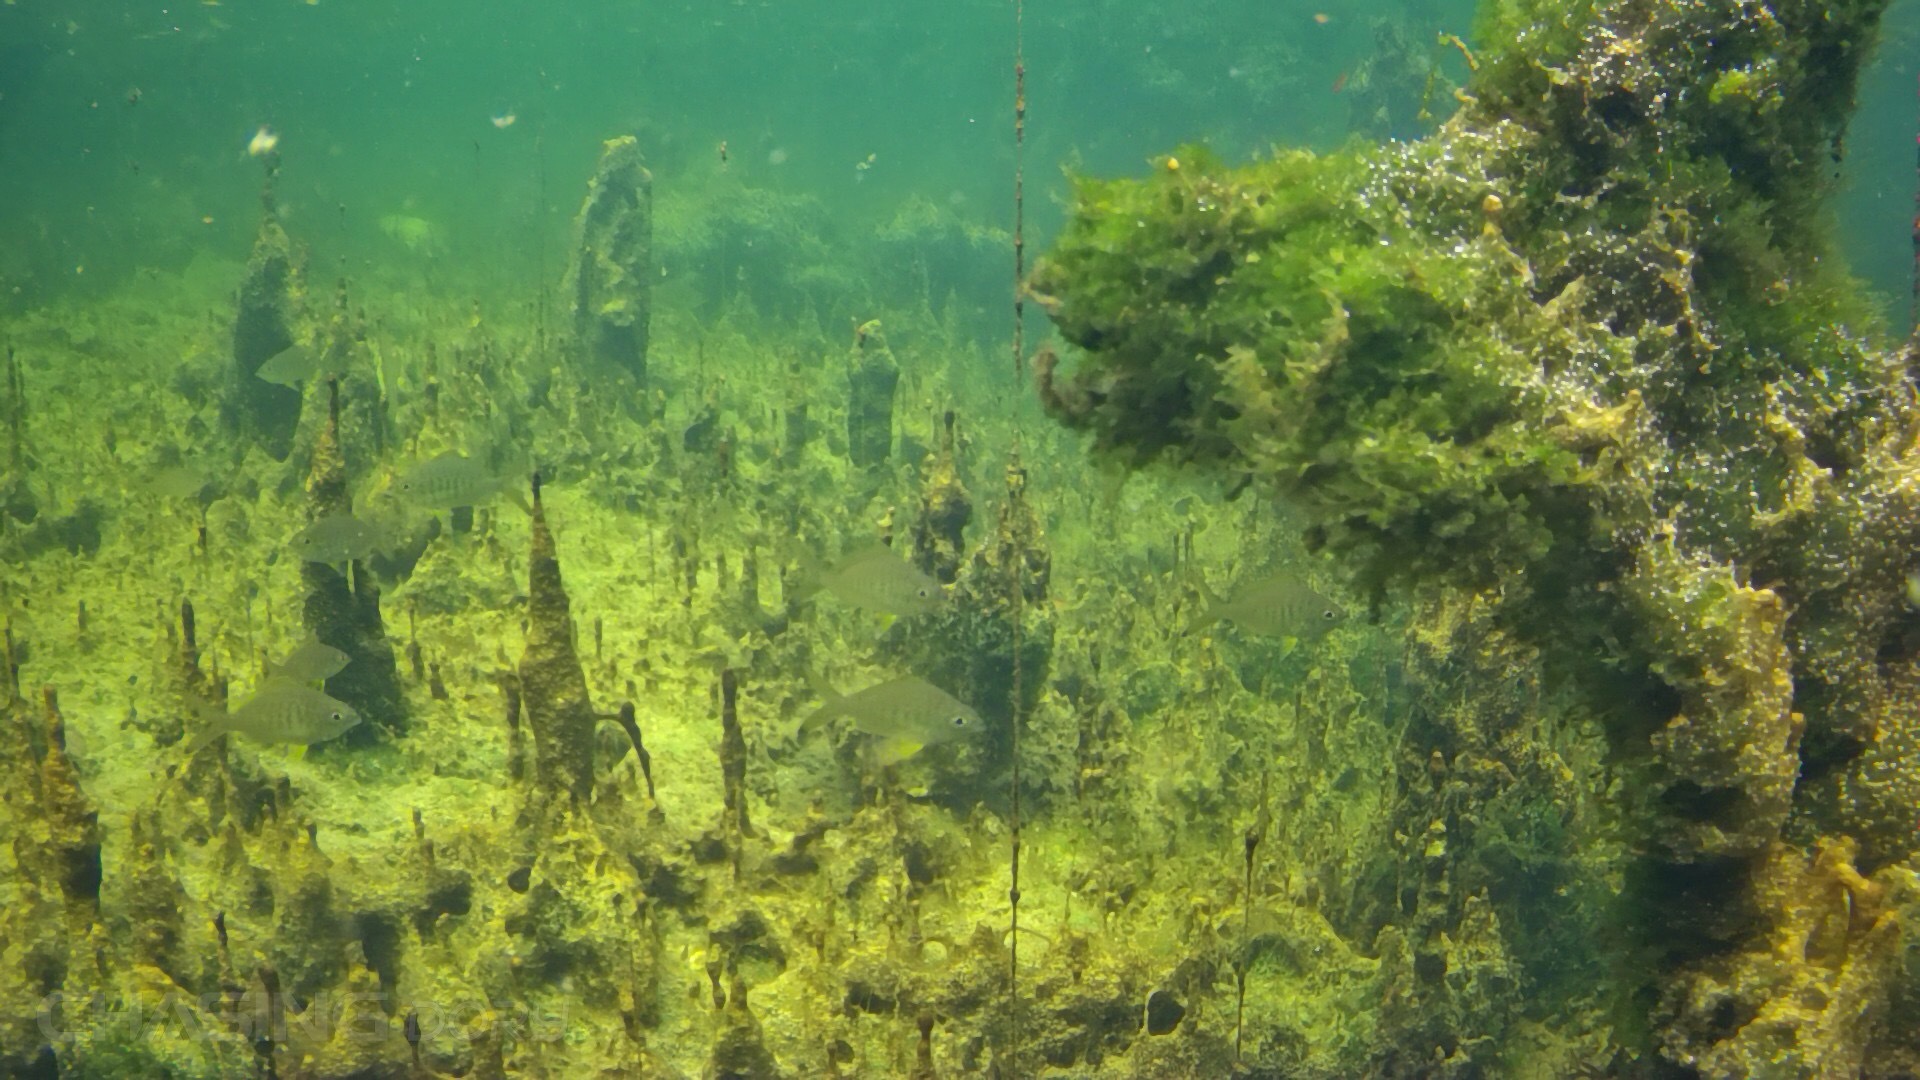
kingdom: Animalia
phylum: Chordata
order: Perciformes
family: Gerreidae
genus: Gerres
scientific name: Gerres cinereus
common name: Hedow
